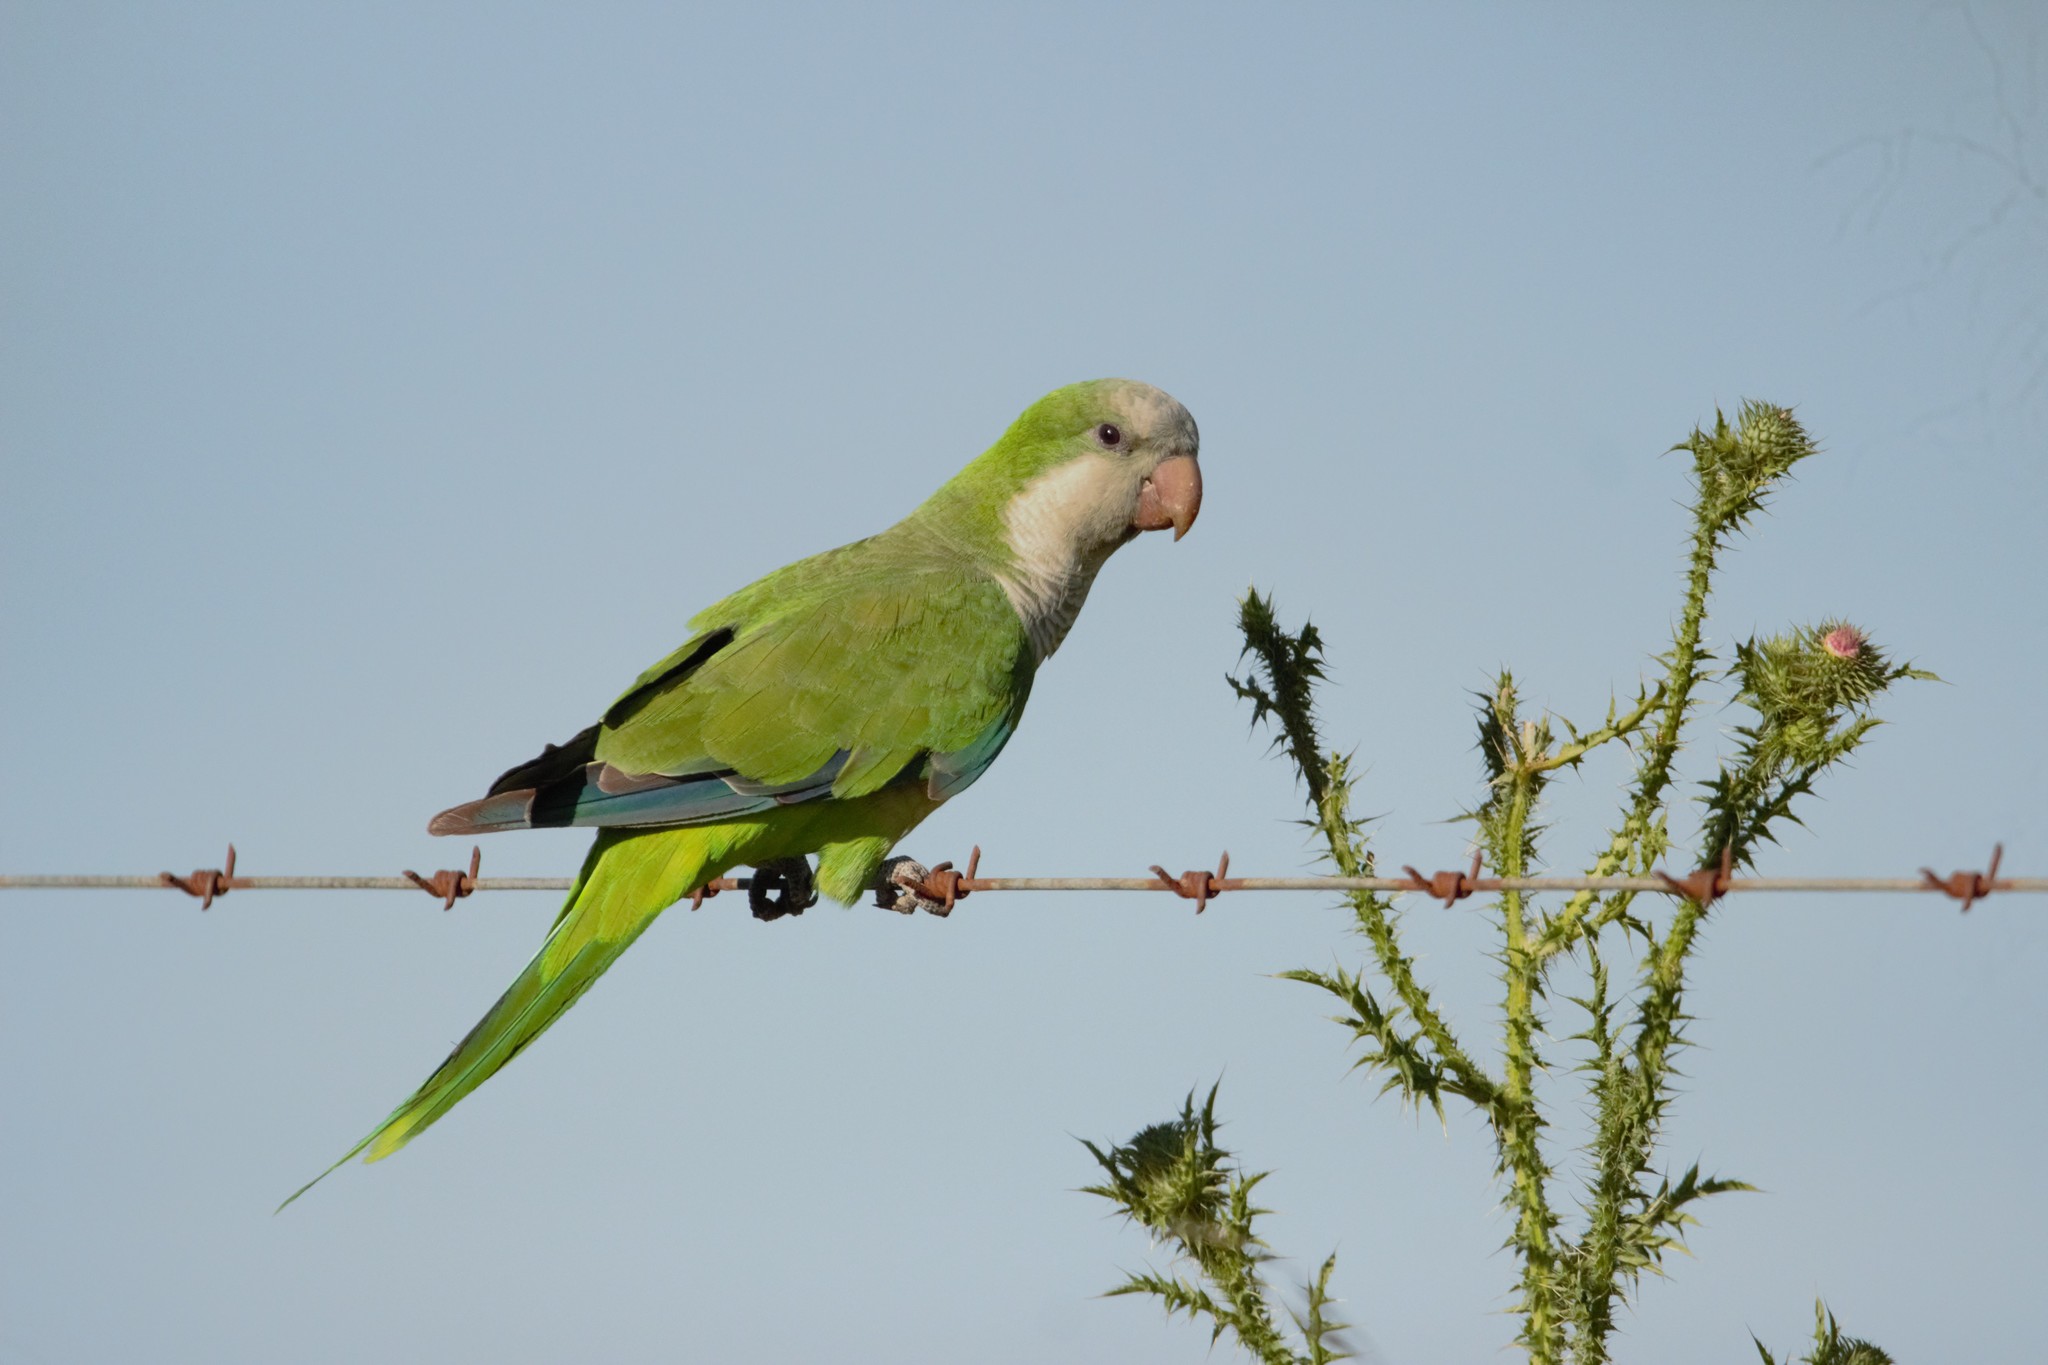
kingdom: Animalia
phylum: Chordata
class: Aves
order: Psittaciformes
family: Psittacidae
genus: Myiopsitta
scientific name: Myiopsitta monachus
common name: Monk parakeet
